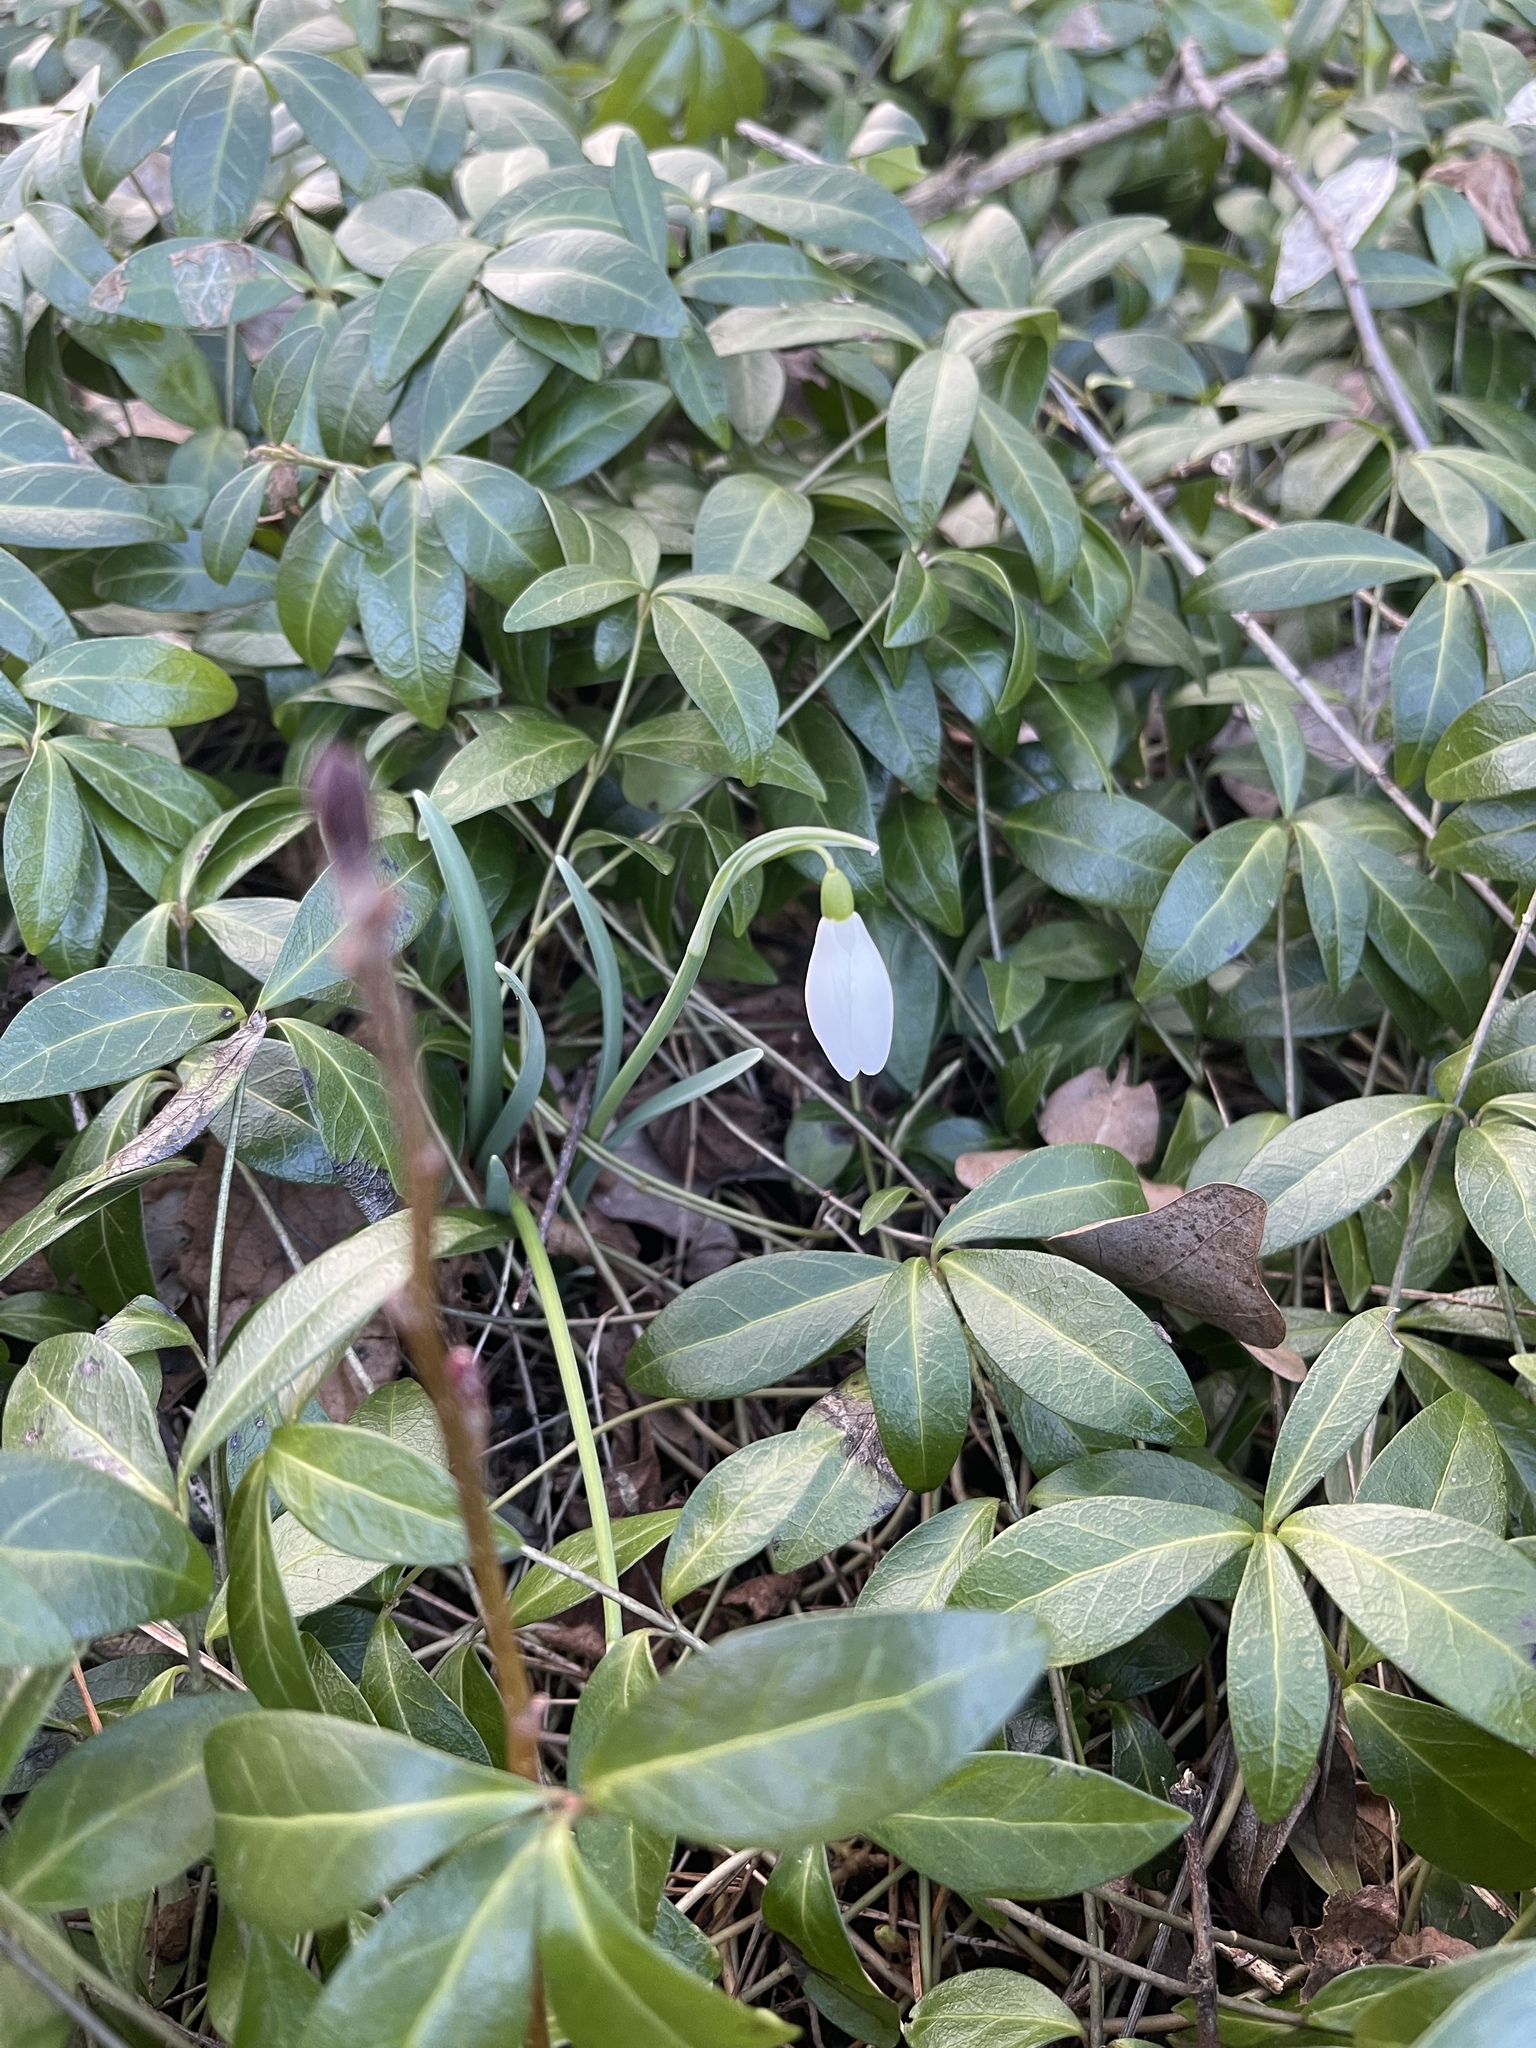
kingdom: Plantae
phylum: Tracheophyta
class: Liliopsida
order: Asparagales
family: Amaryllidaceae
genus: Galanthus
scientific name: Galanthus nivalis
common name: Snowdrop
